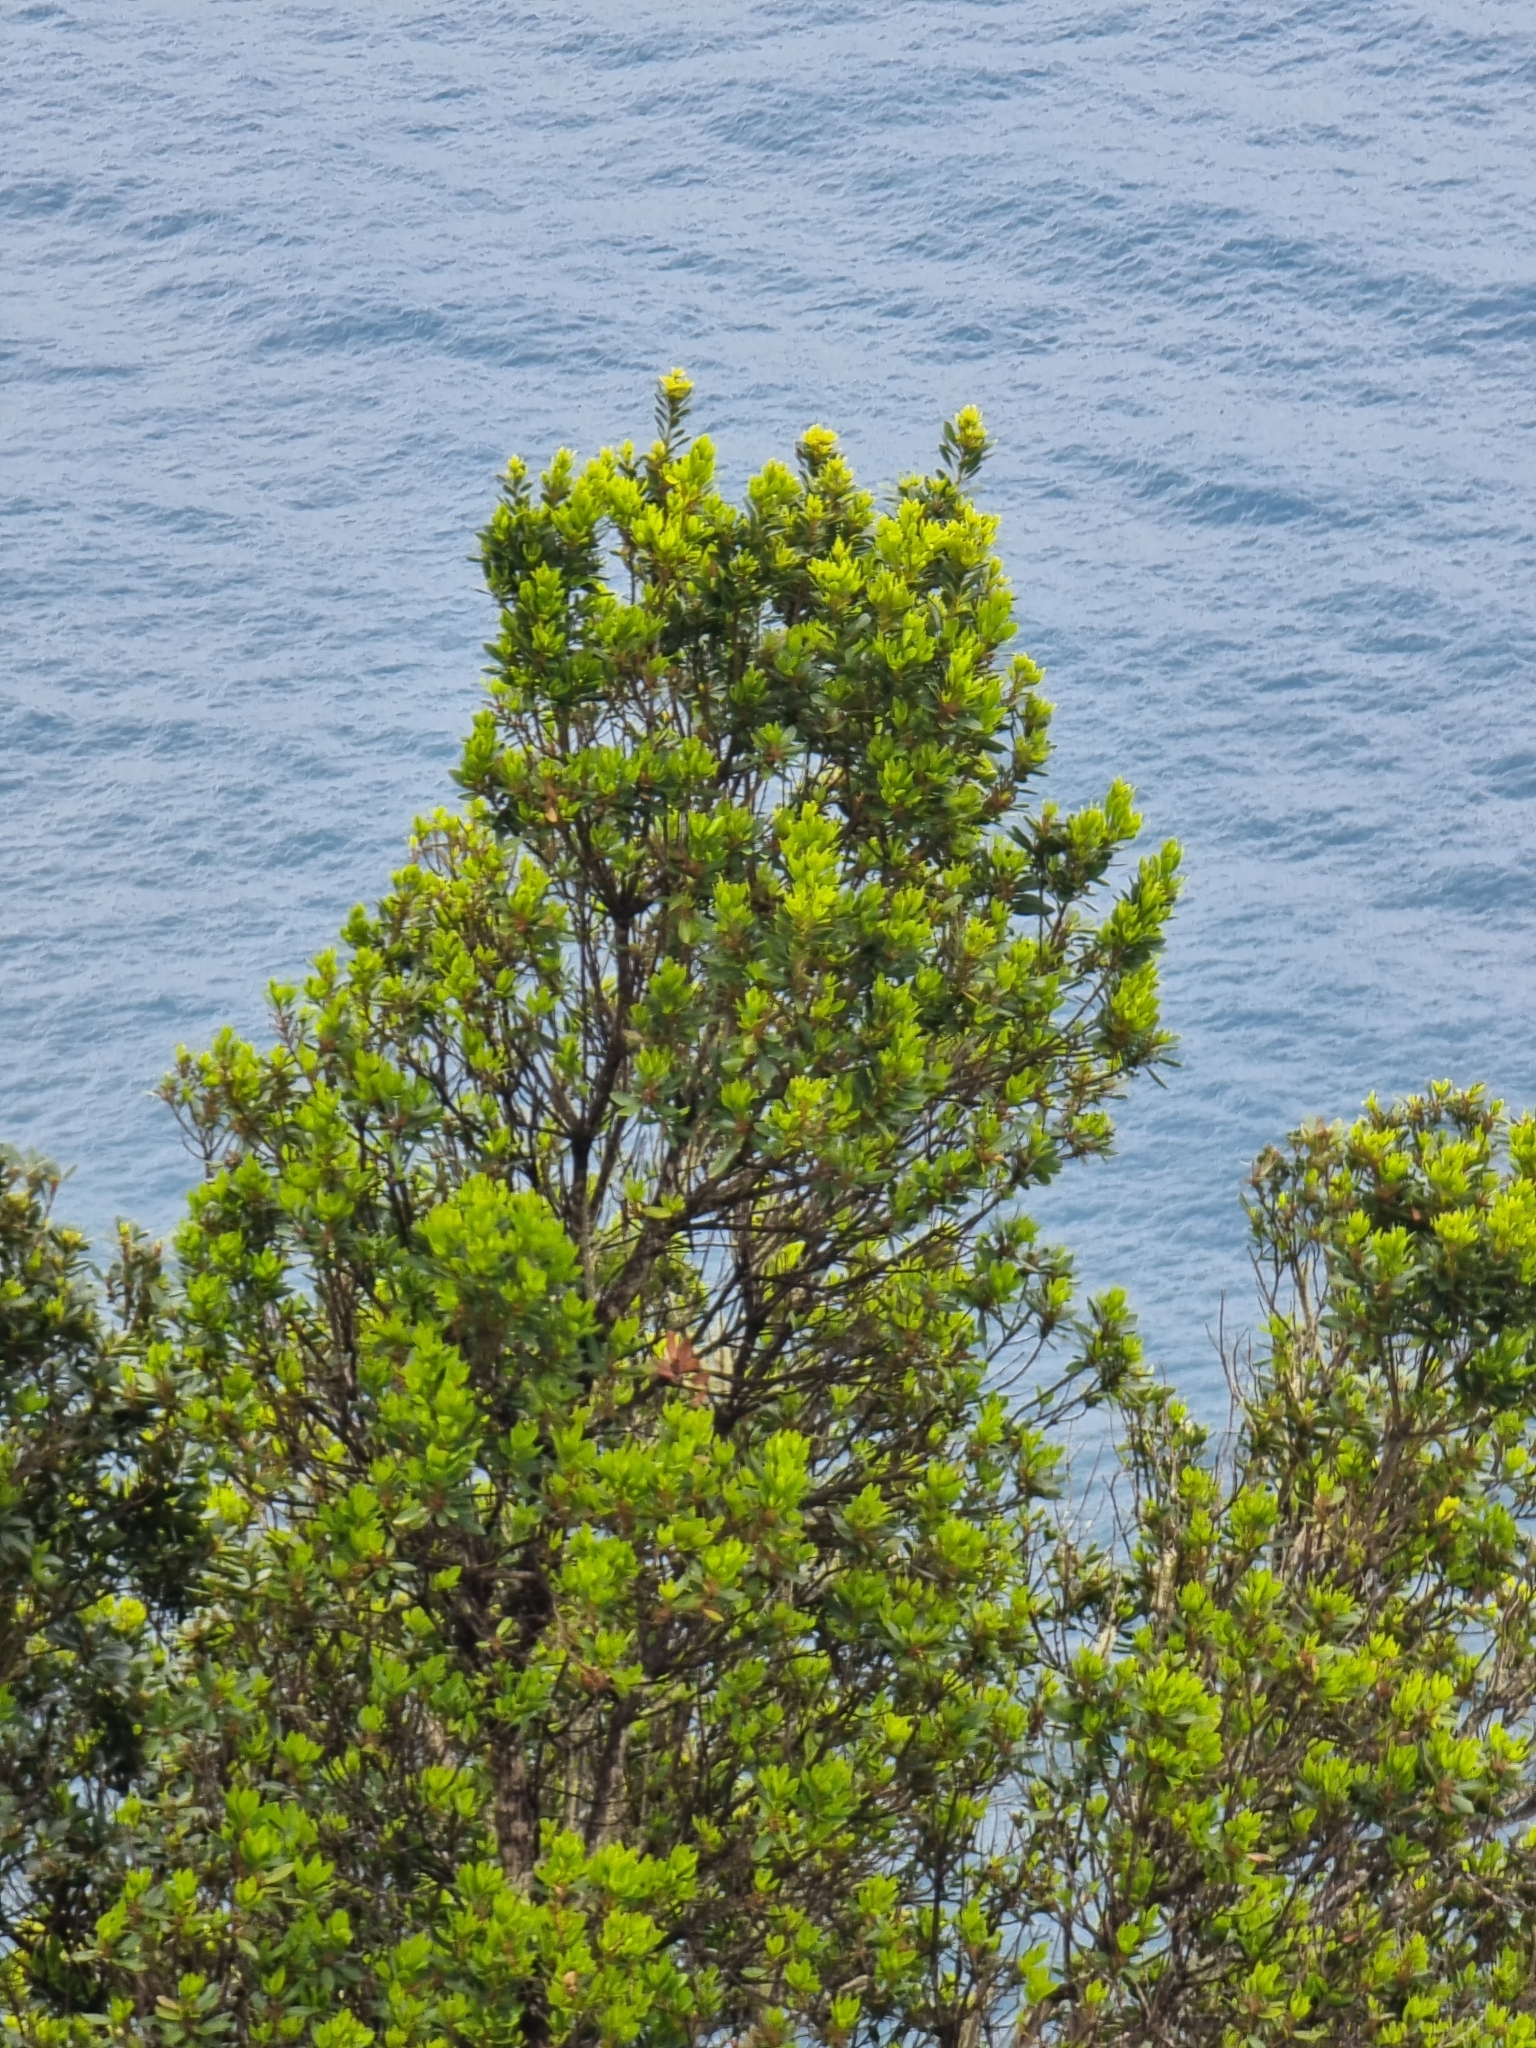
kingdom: Plantae
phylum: Tracheophyta
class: Magnoliopsida
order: Fagales
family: Myricaceae
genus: Morella
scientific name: Morella faya
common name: Firetree
